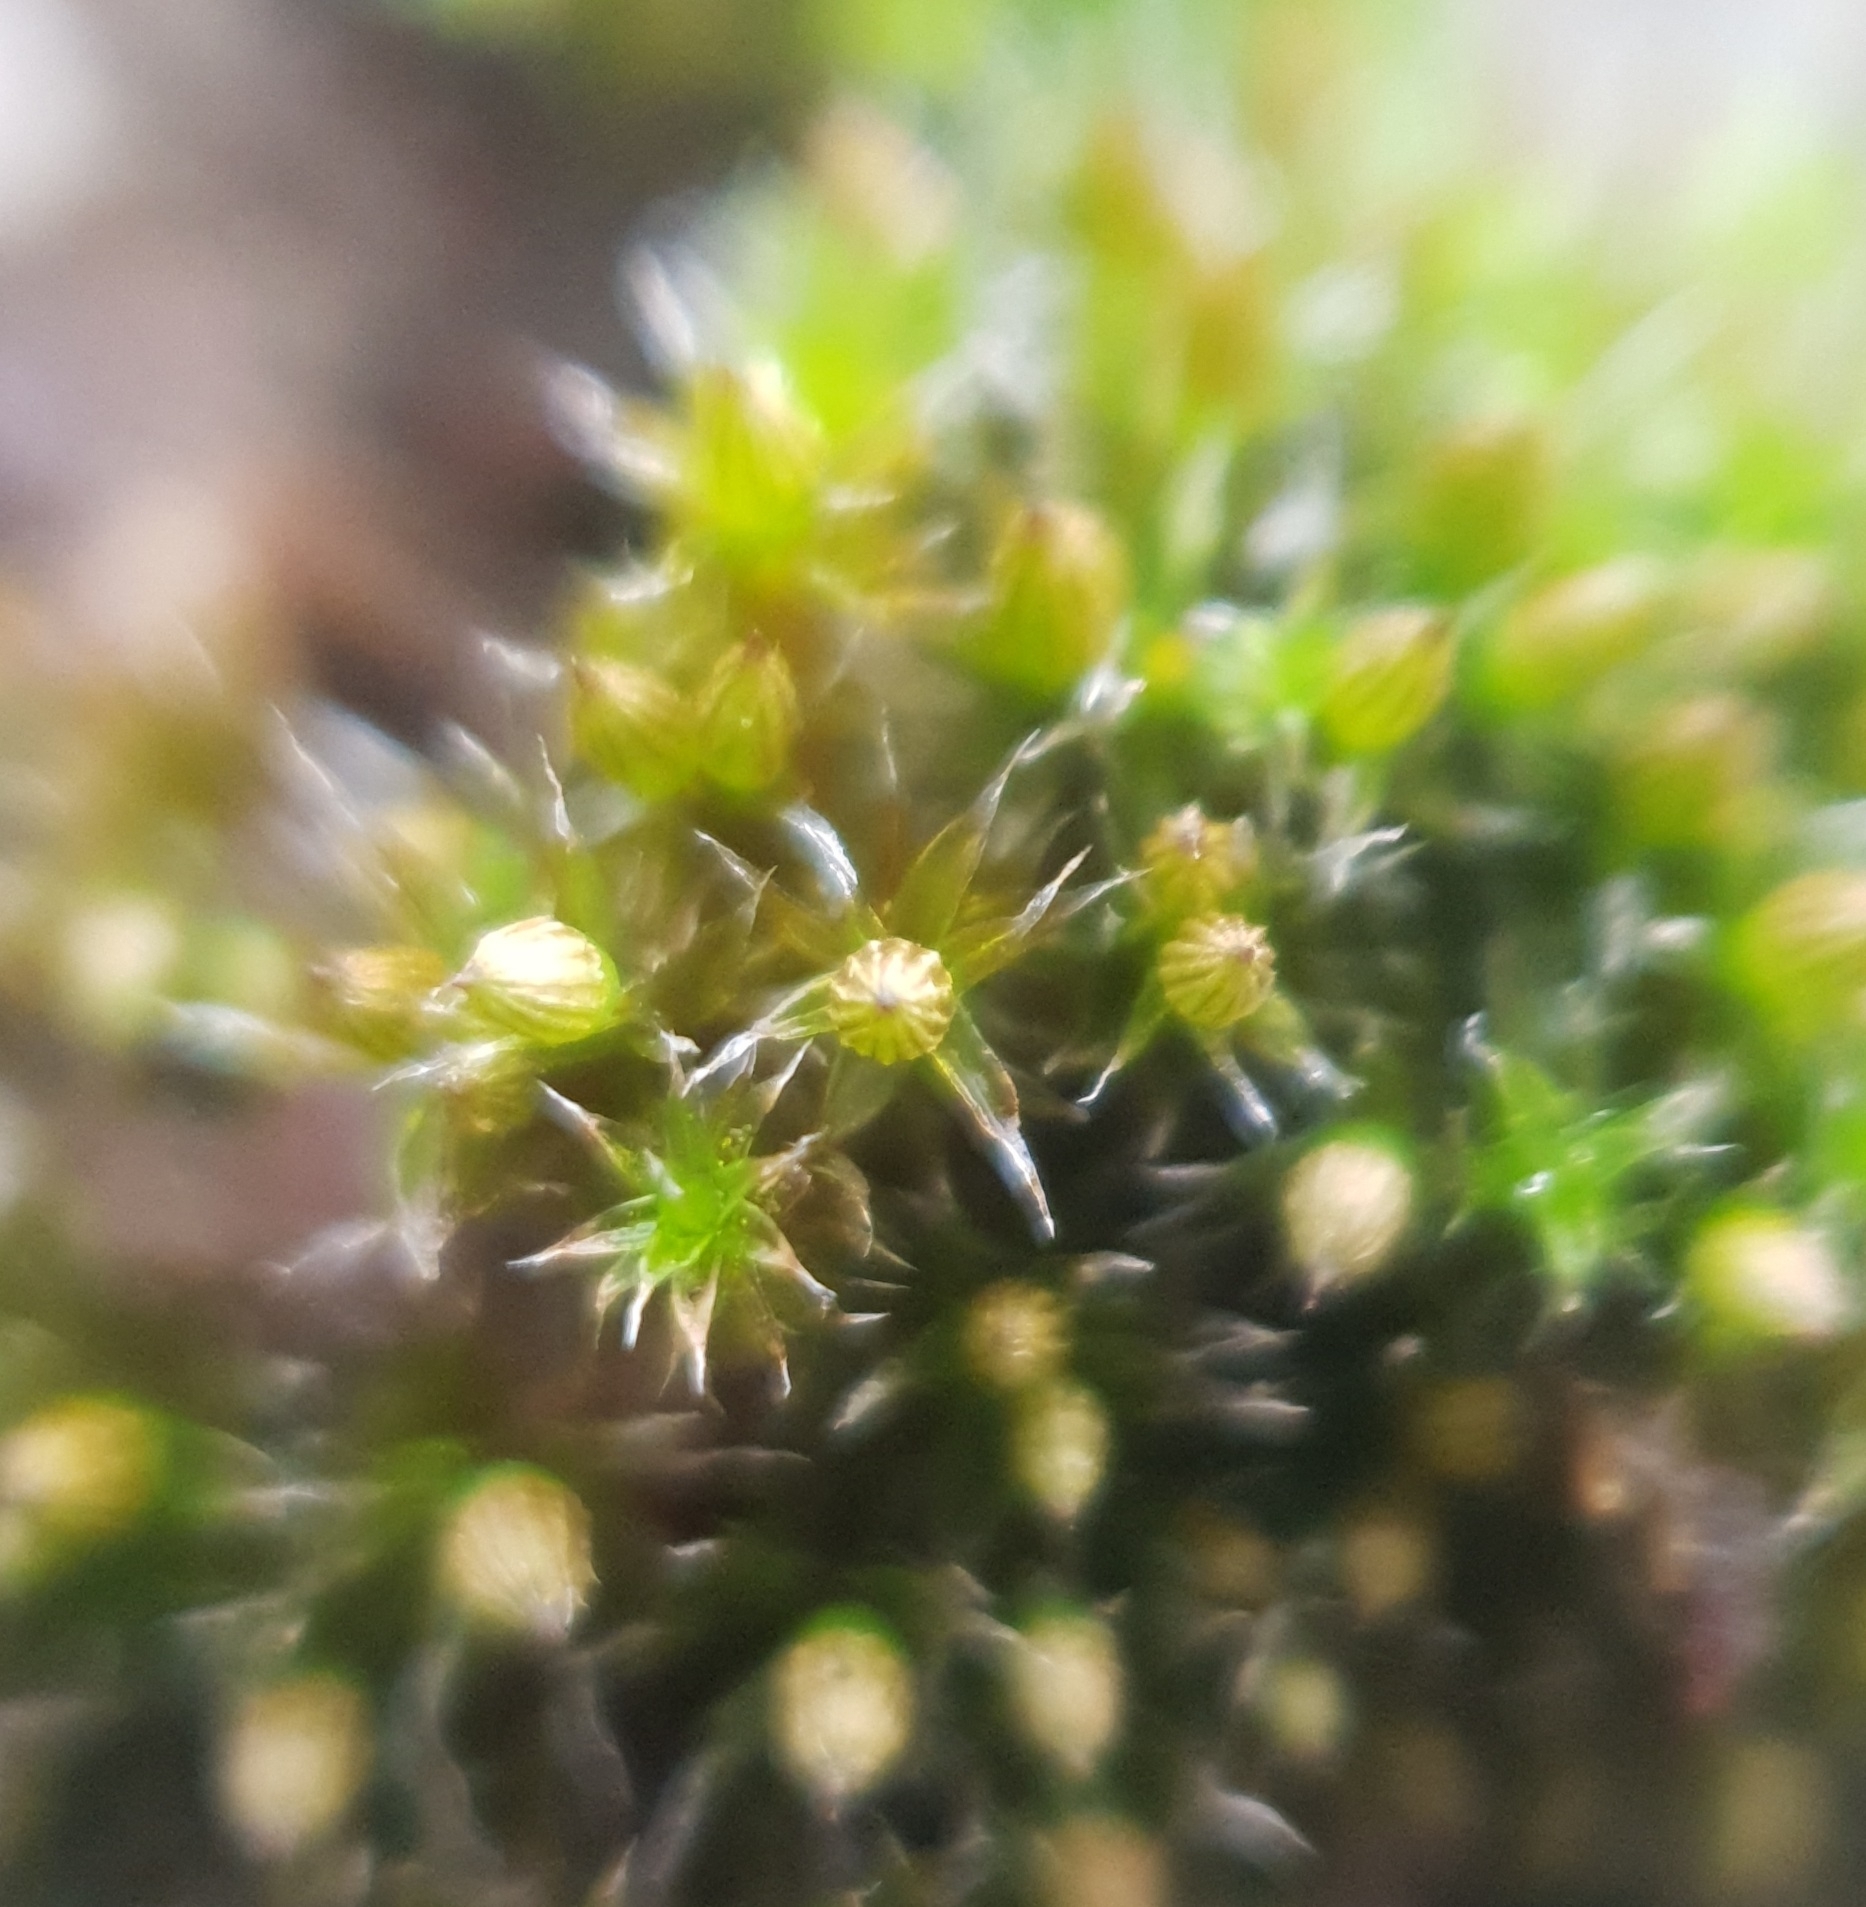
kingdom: Plantae
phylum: Bryophyta
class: Bryopsida
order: Orthotrichales
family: Orthotrichaceae
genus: Orthotrichum
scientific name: Orthotrichum diaphanum
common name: White-tipped bristle-moss
